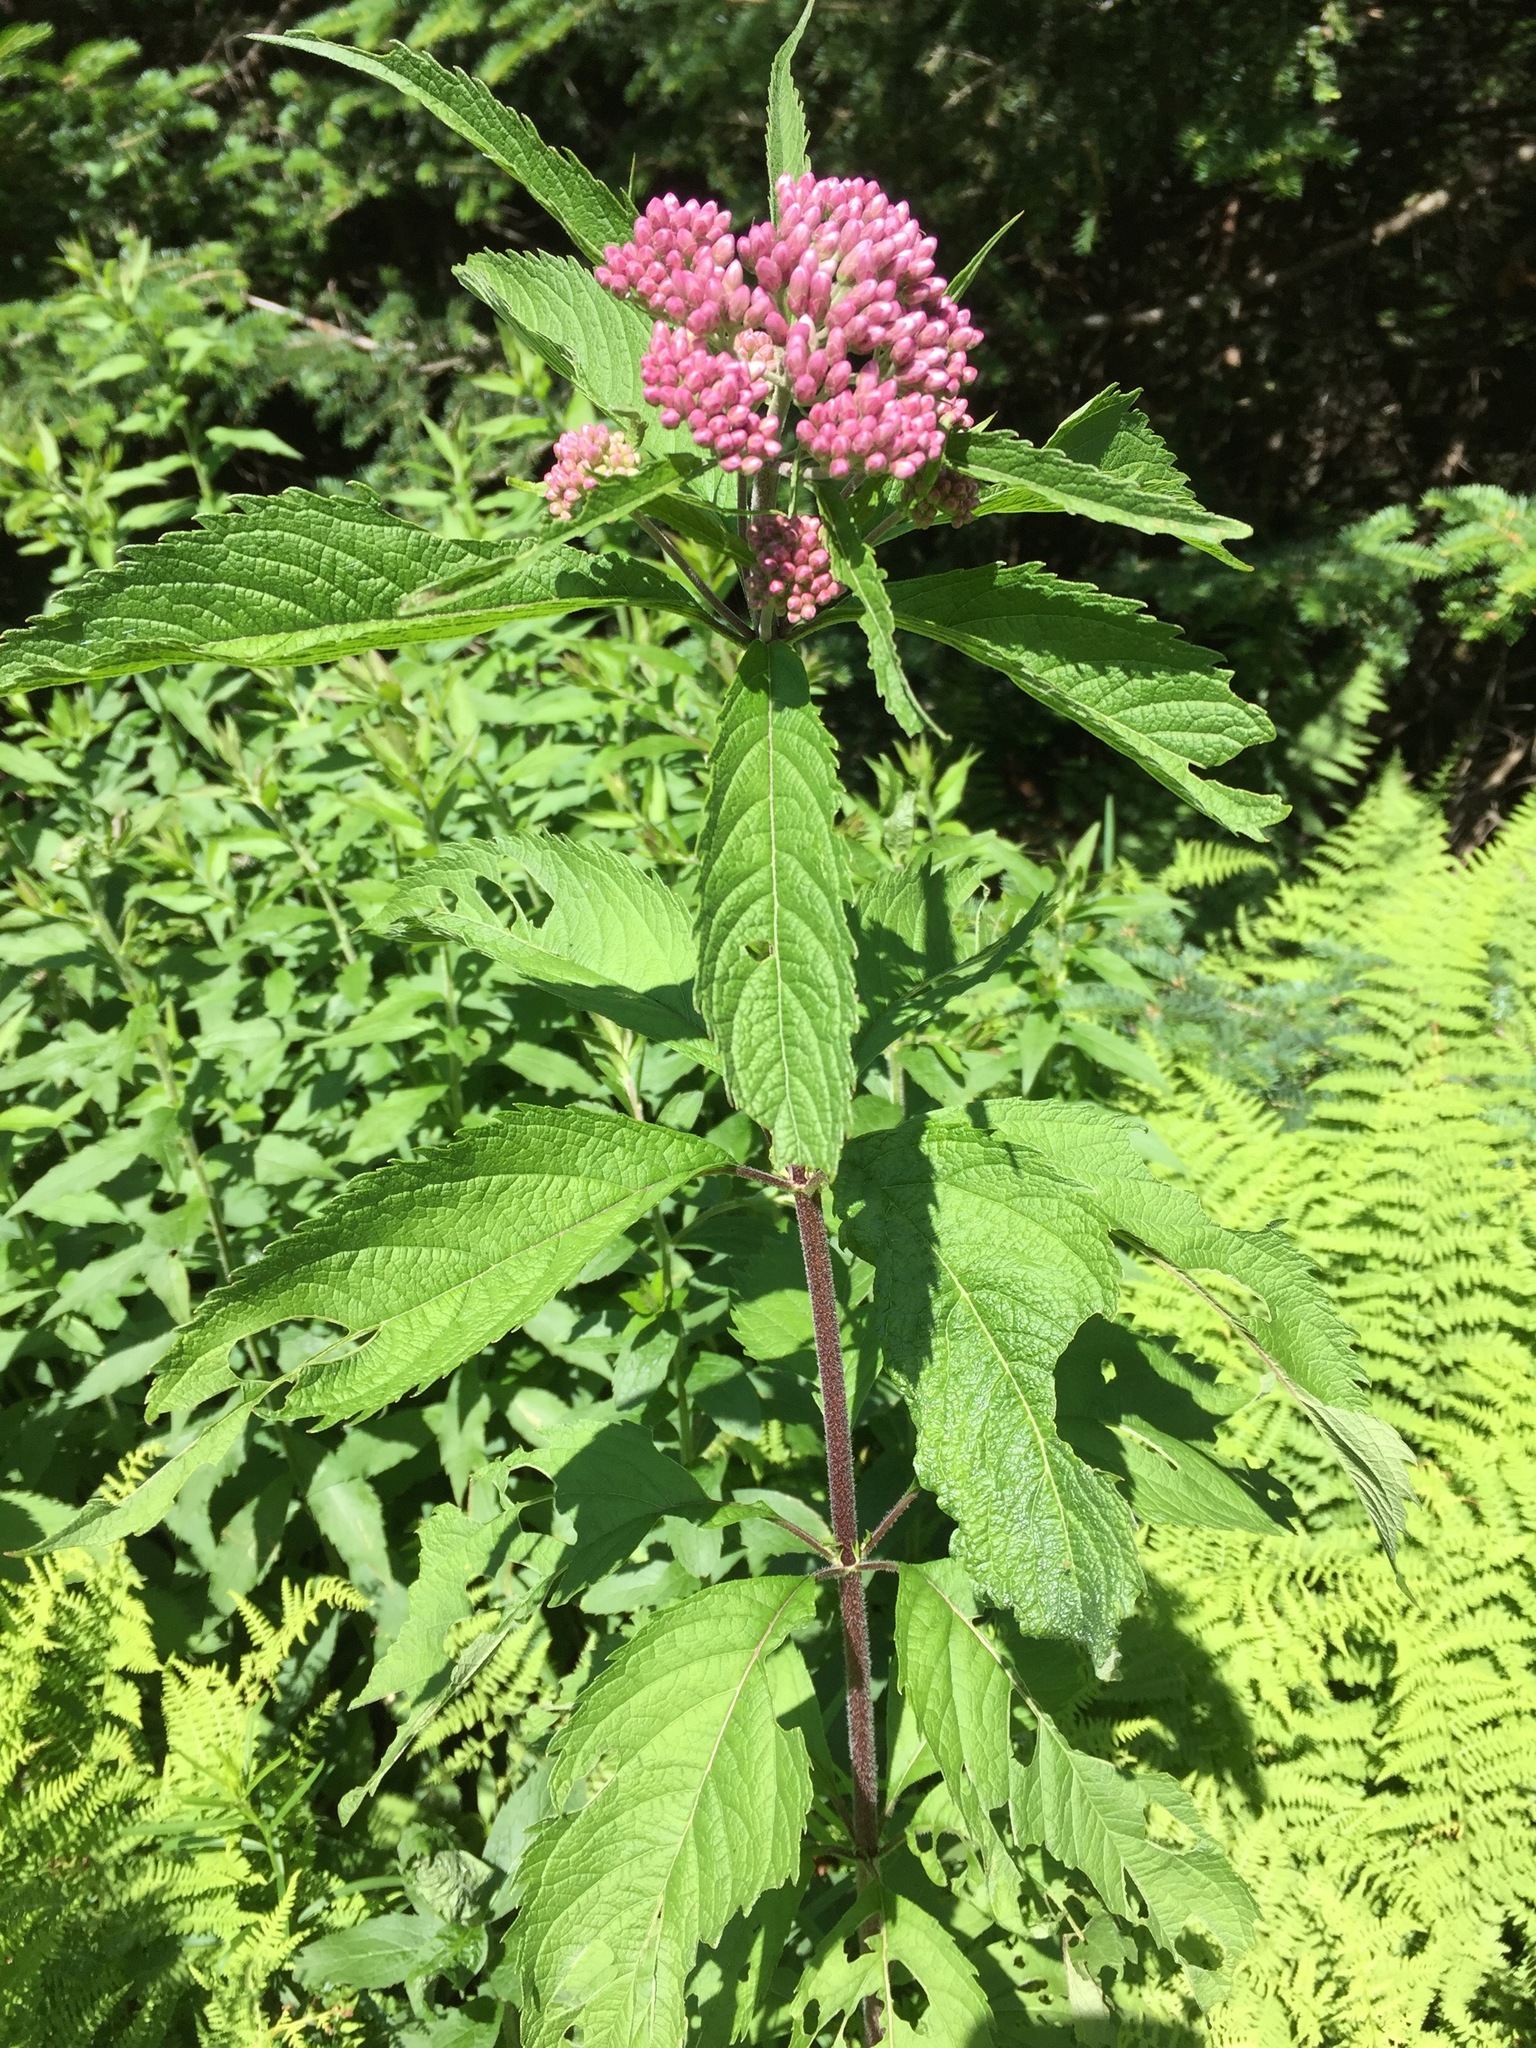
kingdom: Plantae
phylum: Tracheophyta
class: Magnoliopsida
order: Asterales
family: Asteraceae
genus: Eutrochium
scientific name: Eutrochium maculatum
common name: Spotted joe pye weed
